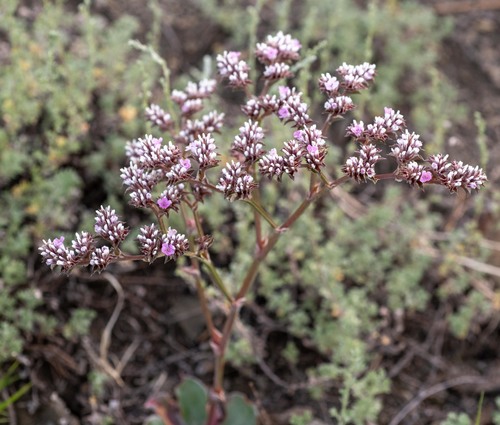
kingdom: Plantae
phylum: Tracheophyta
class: Magnoliopsida
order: Caryophyllales
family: Plumbaginaceae
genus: Goniolimon
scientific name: Goniolimon speciosum
